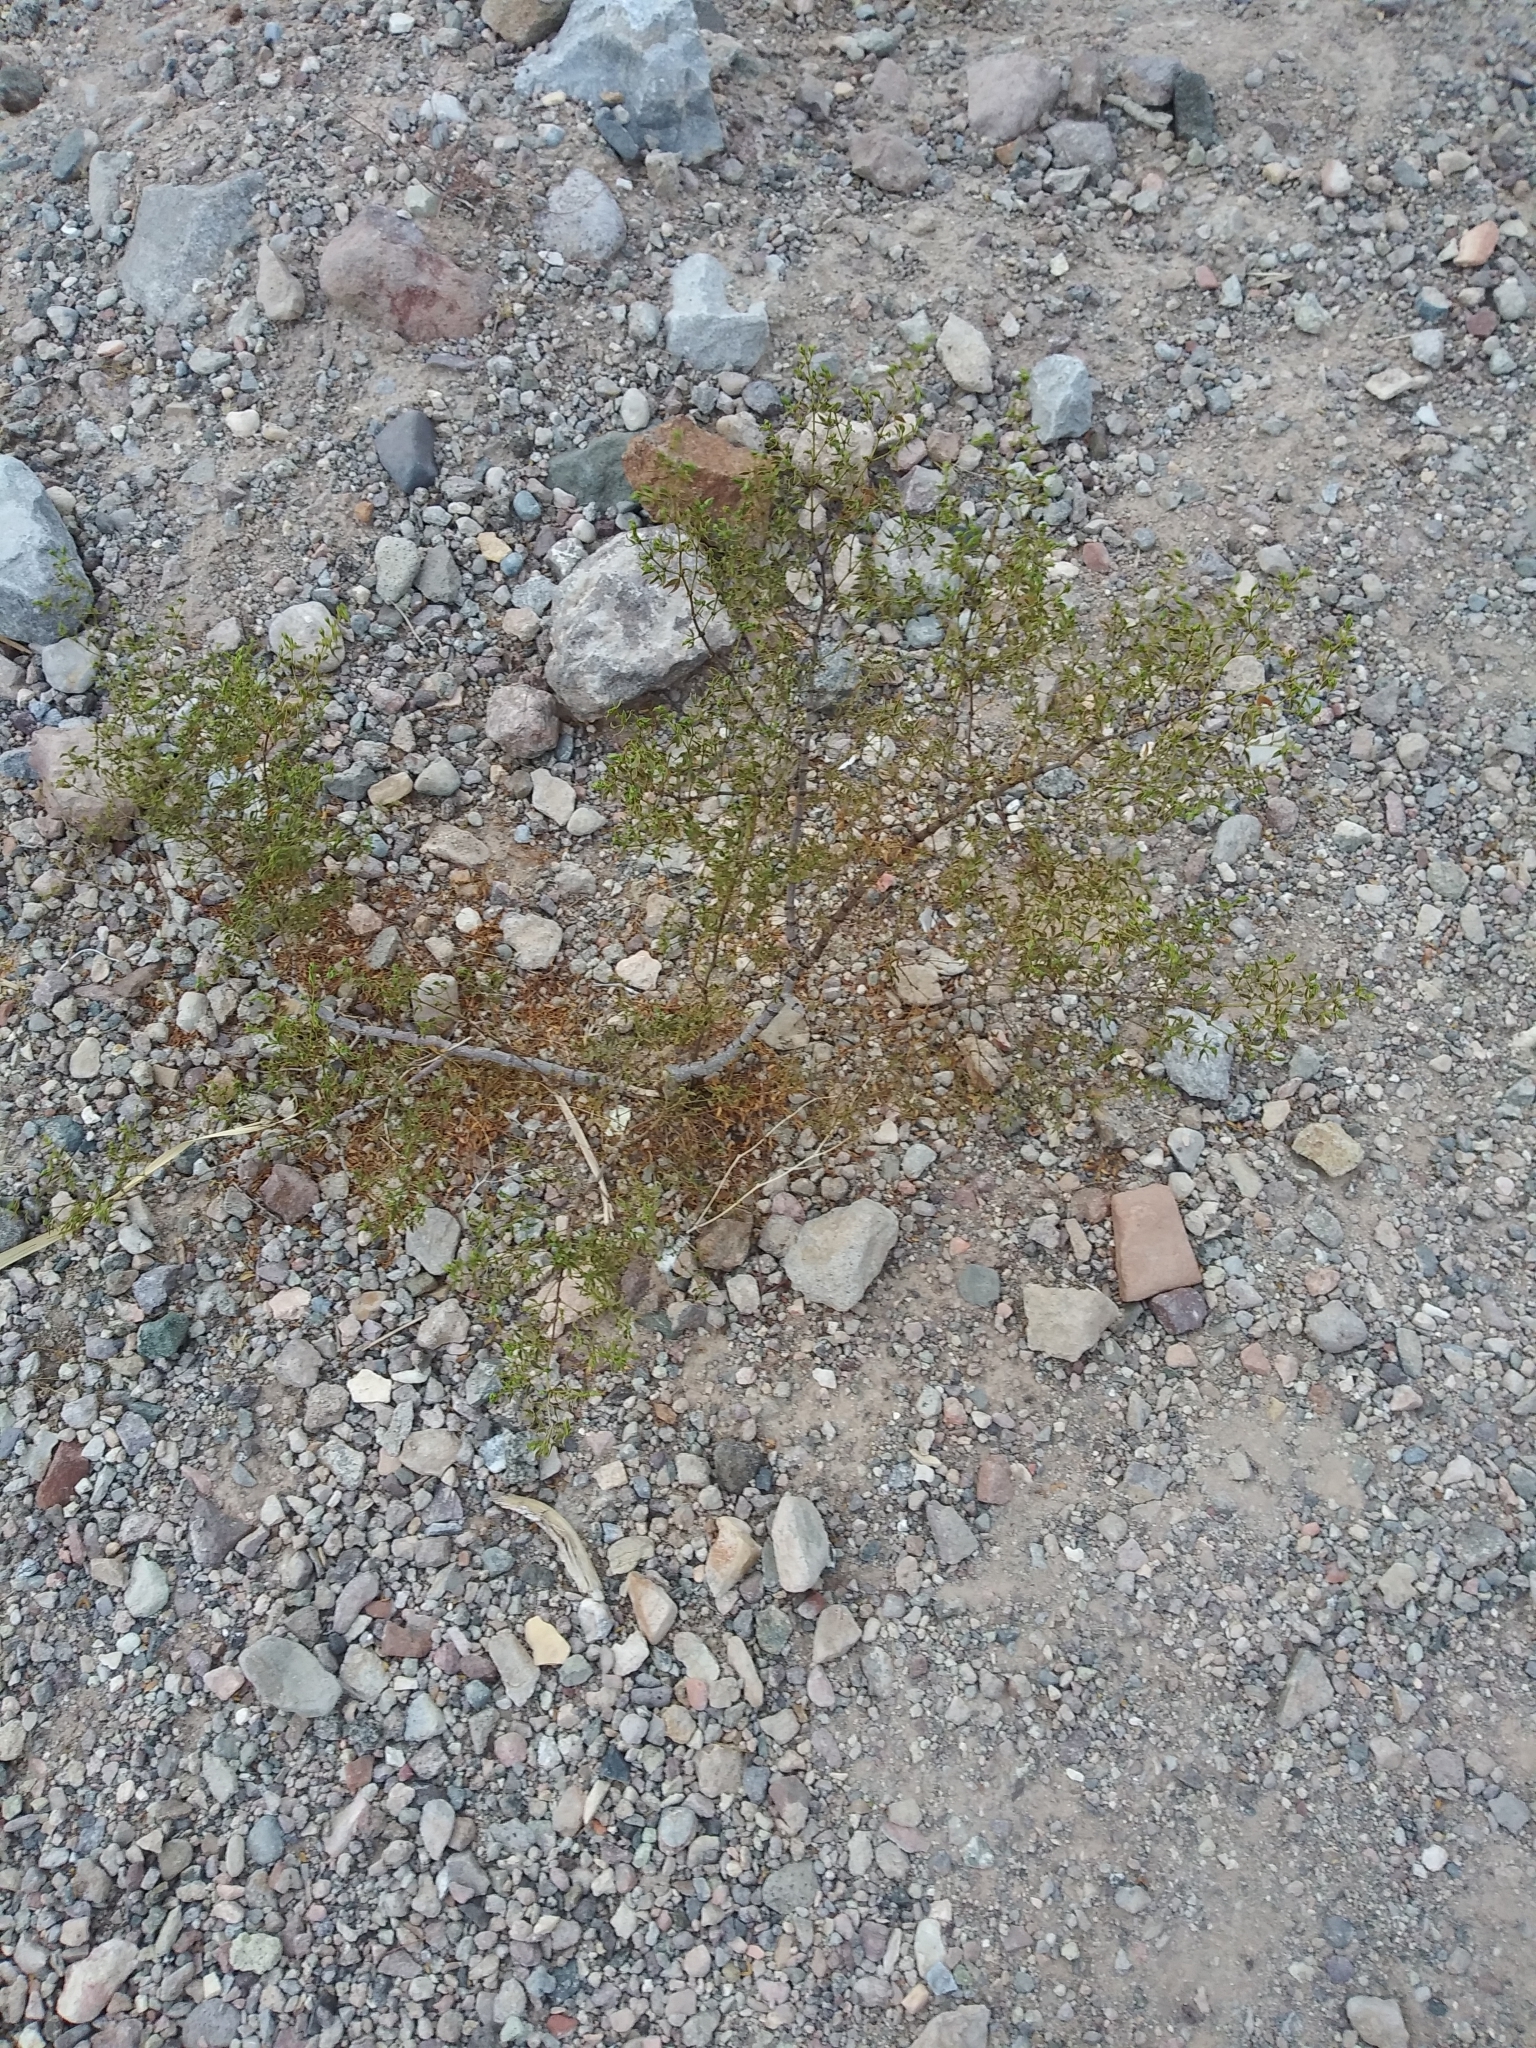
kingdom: Plantae
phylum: Tracheophyta
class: Magnoliopsida
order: Zygophyllales
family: Zygophyllaceae
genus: Larrea
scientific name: Larrea tridentata
